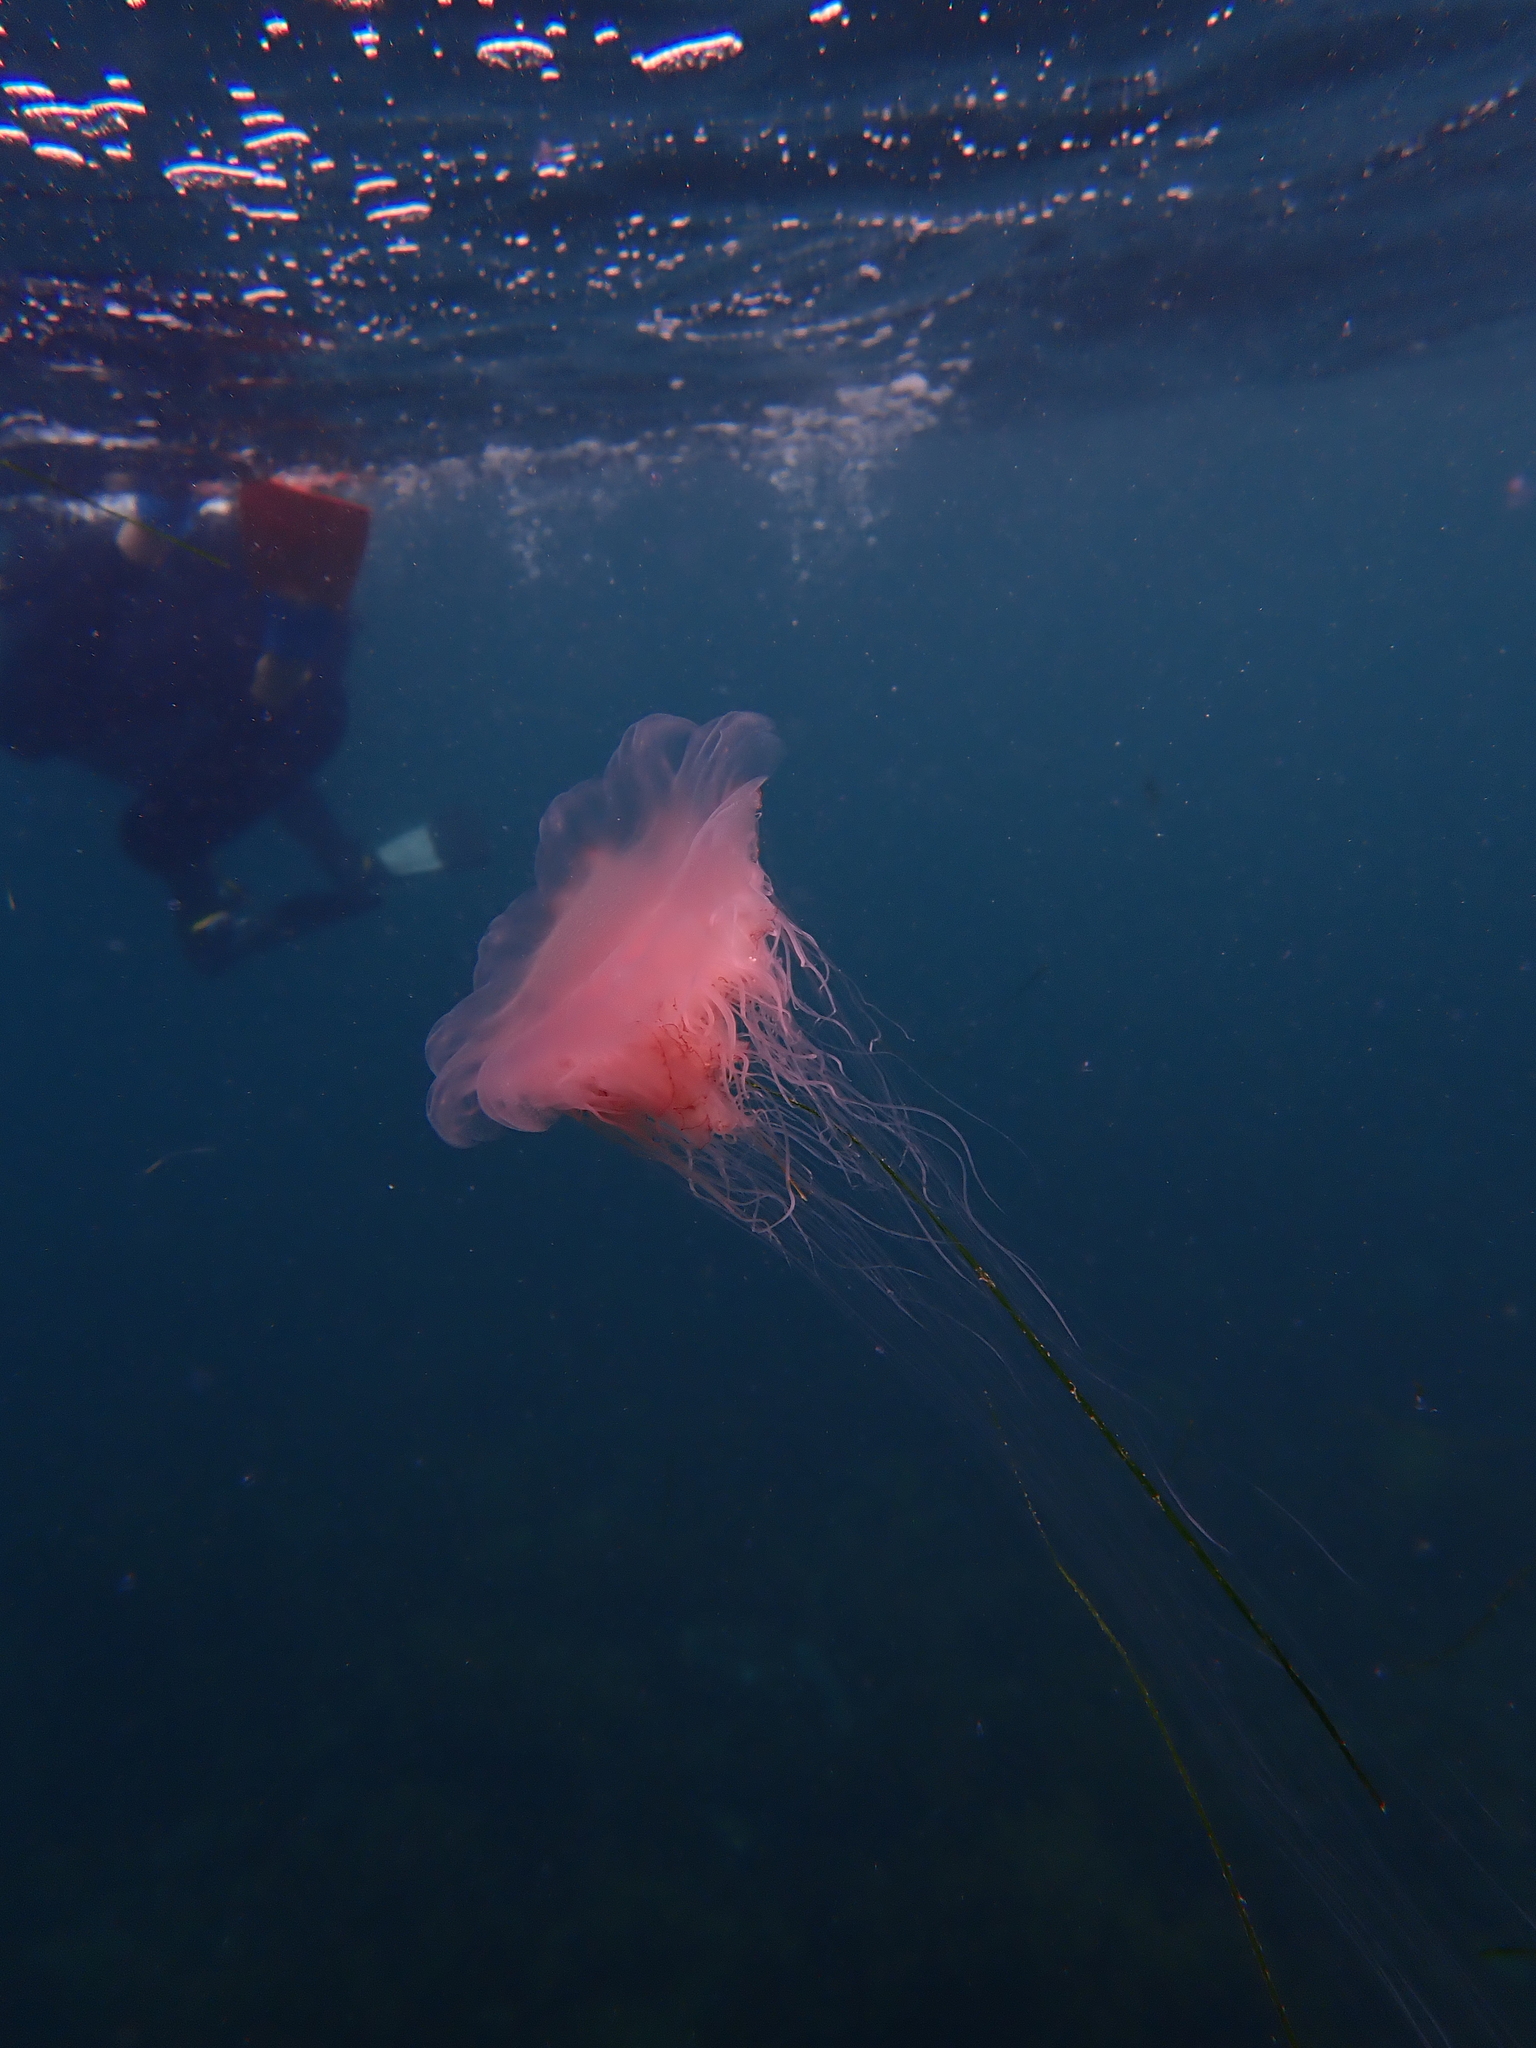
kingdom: Animalia
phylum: Cnidaria
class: Scyphozoa
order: Semaeostomeae
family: Cyaneidae
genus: Cyanea
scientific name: Cyanea annaskala
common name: Lion’s mane
